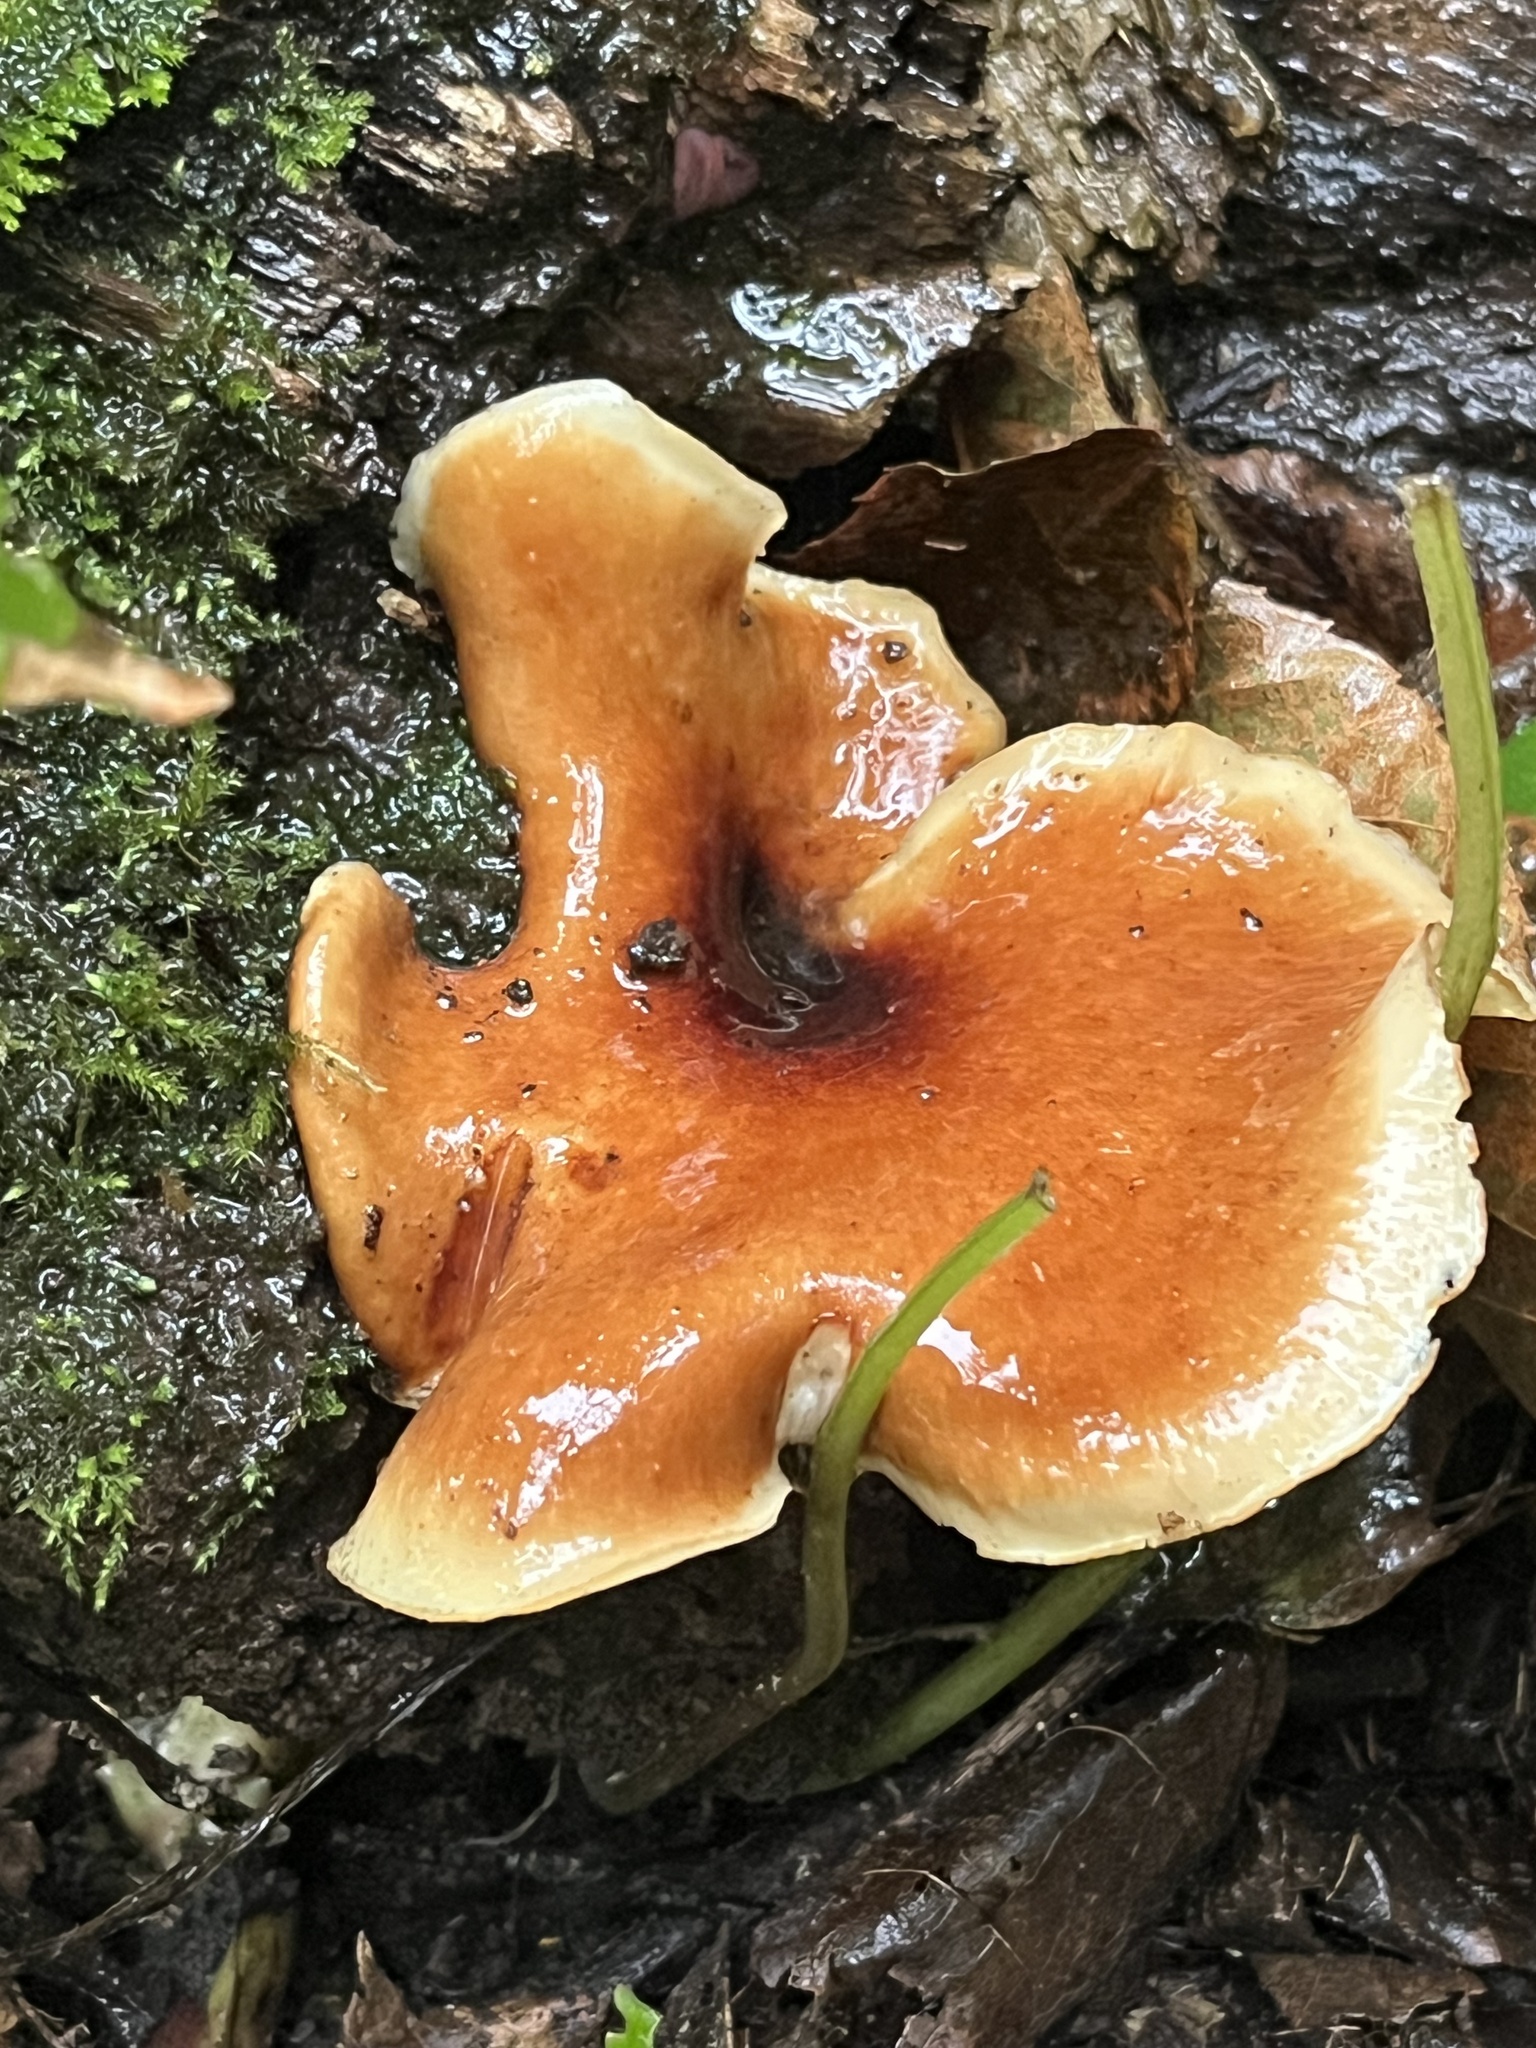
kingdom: Fungi
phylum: Basidiomycota
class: Agaricomycetes
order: Polyporales
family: Polyporaceae
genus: Picipes
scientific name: Picipes badius
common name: Bay polypore
